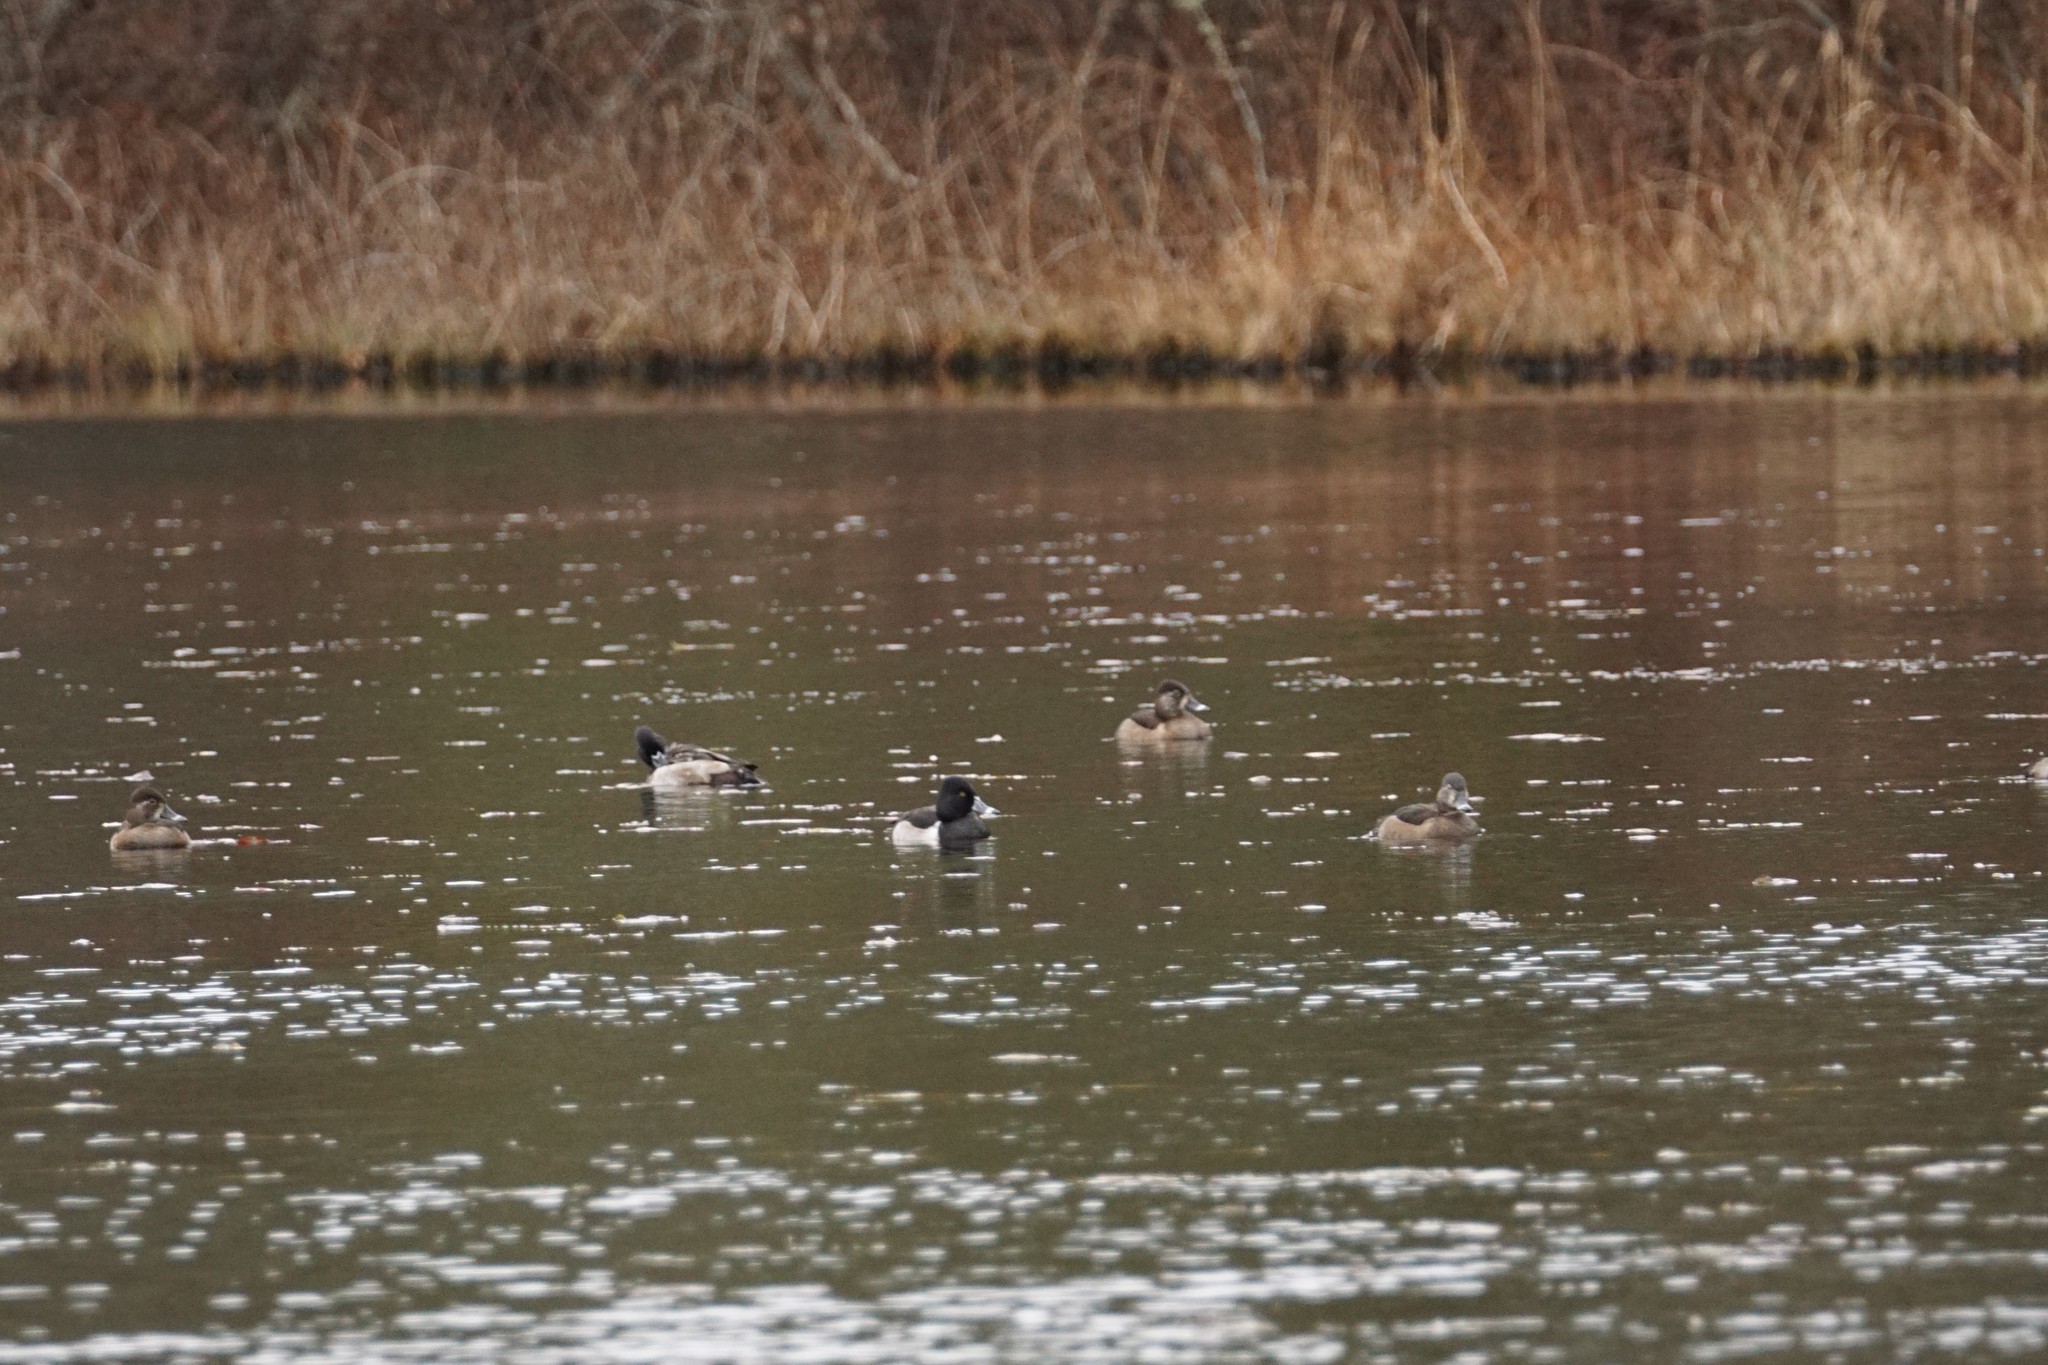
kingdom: Animalia
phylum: Chordata
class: Aves
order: Anseriformes
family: Anatidae
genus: Aythya
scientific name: Aythya collaris
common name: Ring-necked duck
